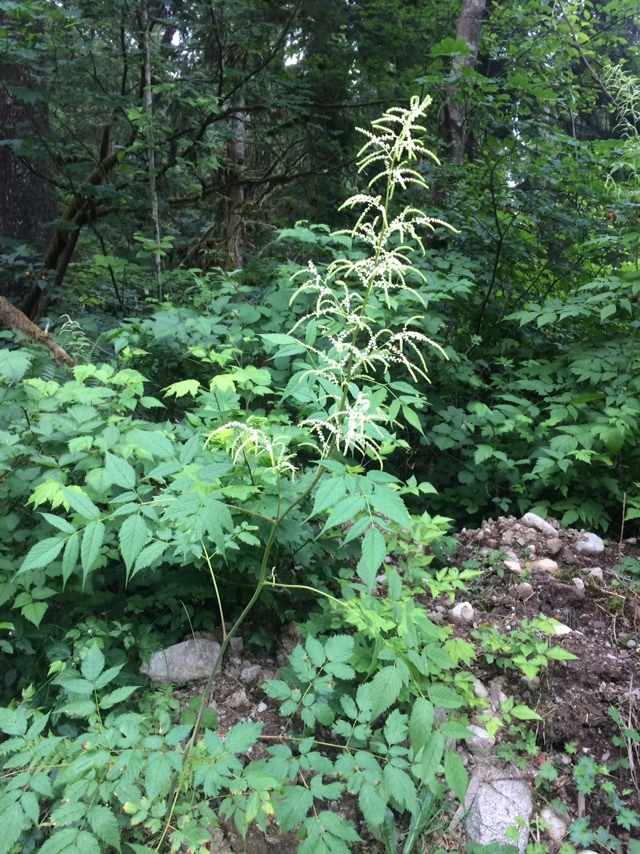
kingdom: Plantae
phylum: Tracheophyta
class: Magnoliopsida
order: Rosales
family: Rosaceae
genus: Aruncus
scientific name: Aruncus dioicus
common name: Buck's-beard
